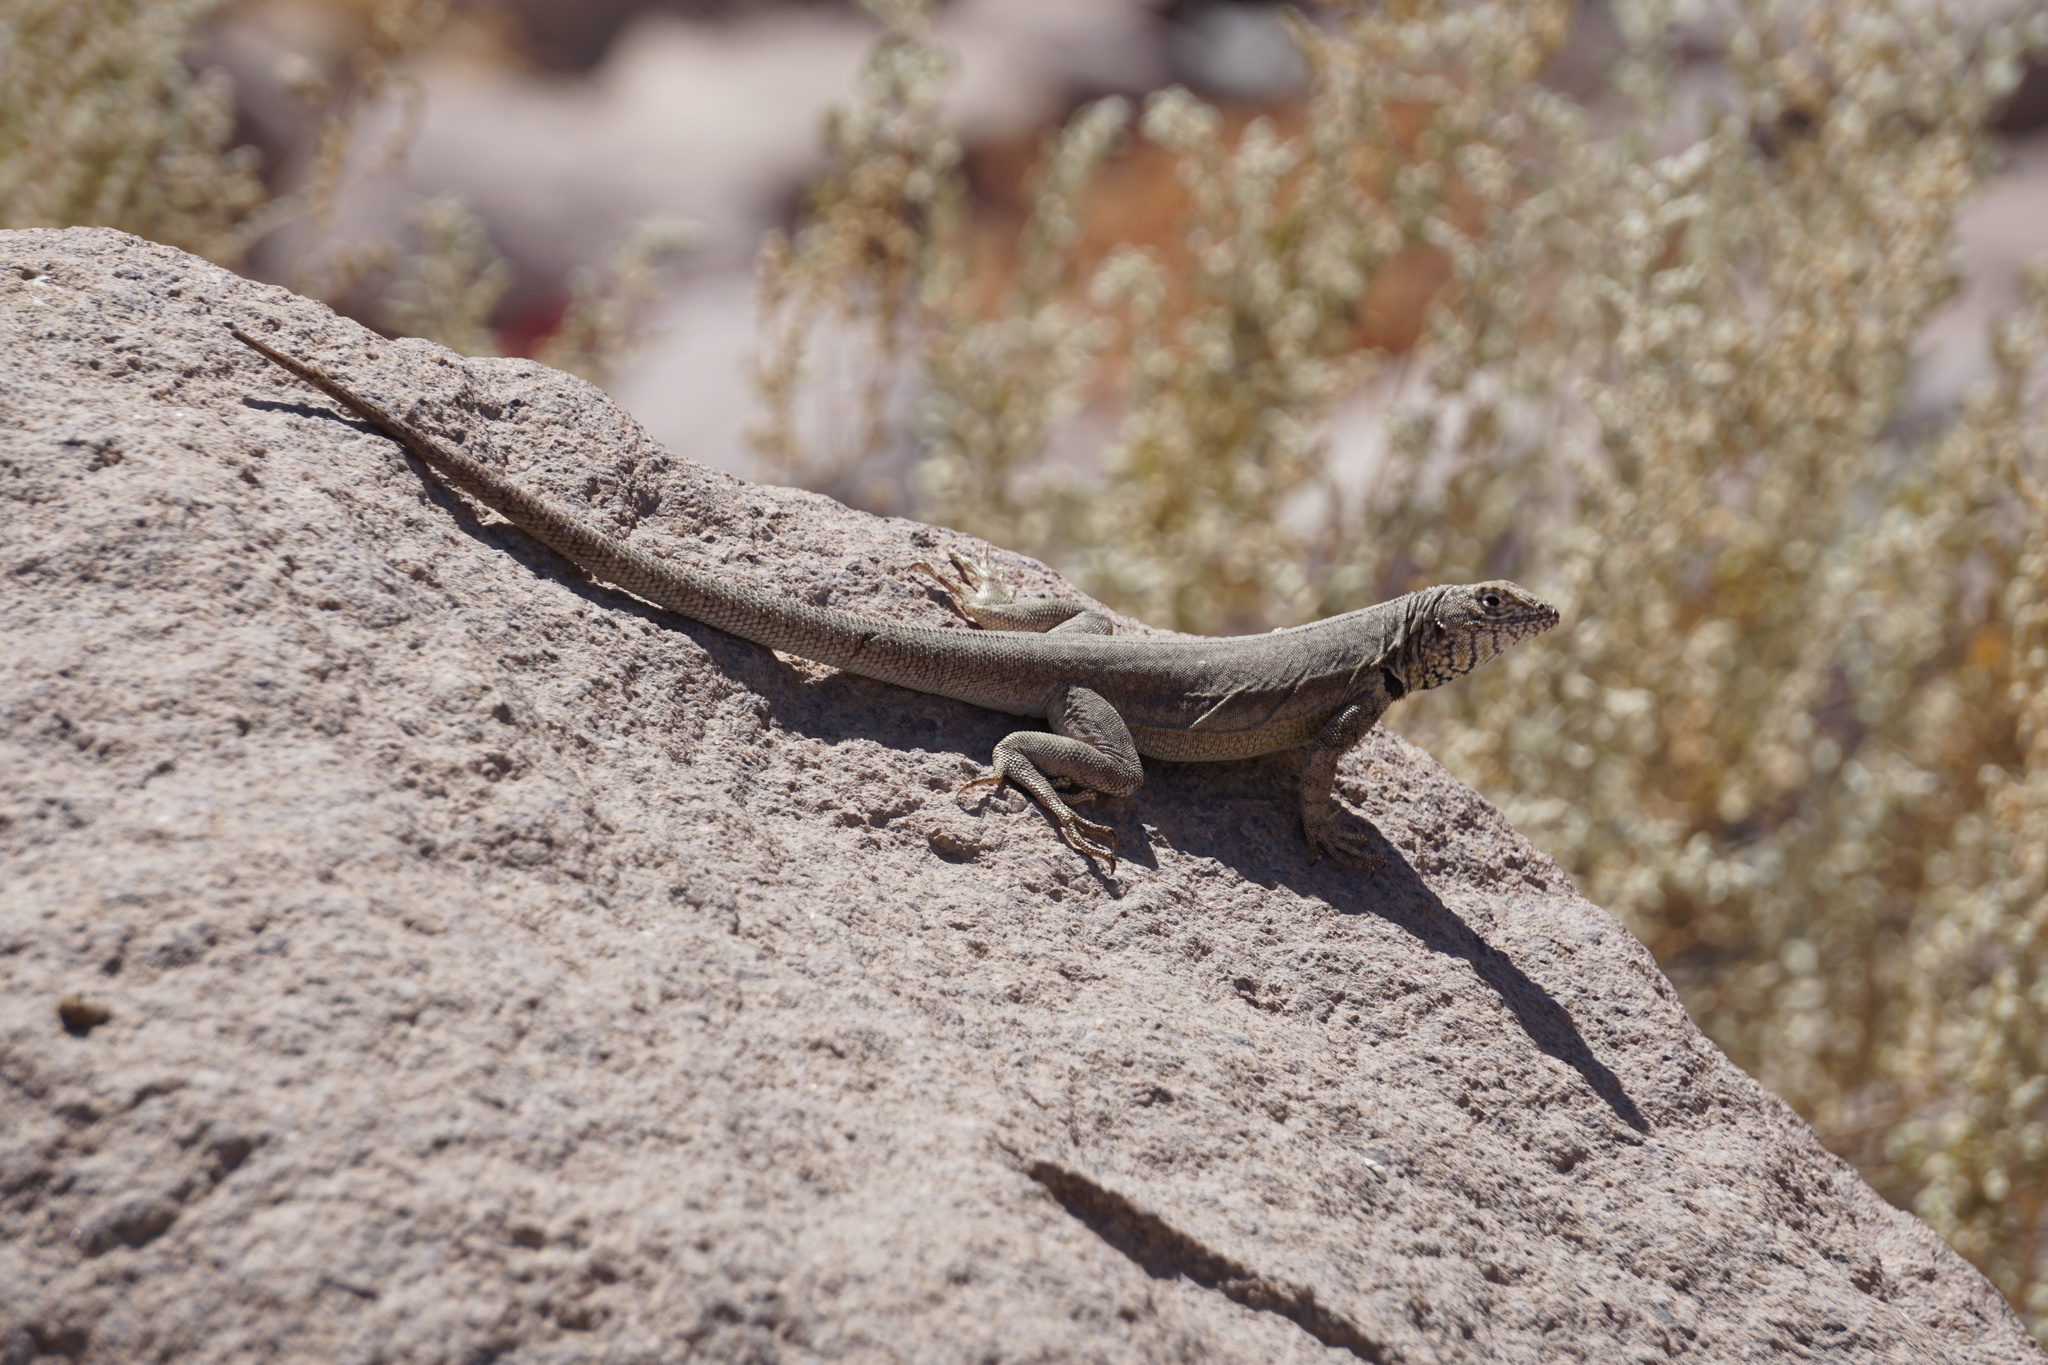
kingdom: Animalia
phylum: Chordata
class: Squamata
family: Tropiduridae
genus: Microlophus
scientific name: Microlophus theresioides
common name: Small pacific iguana
